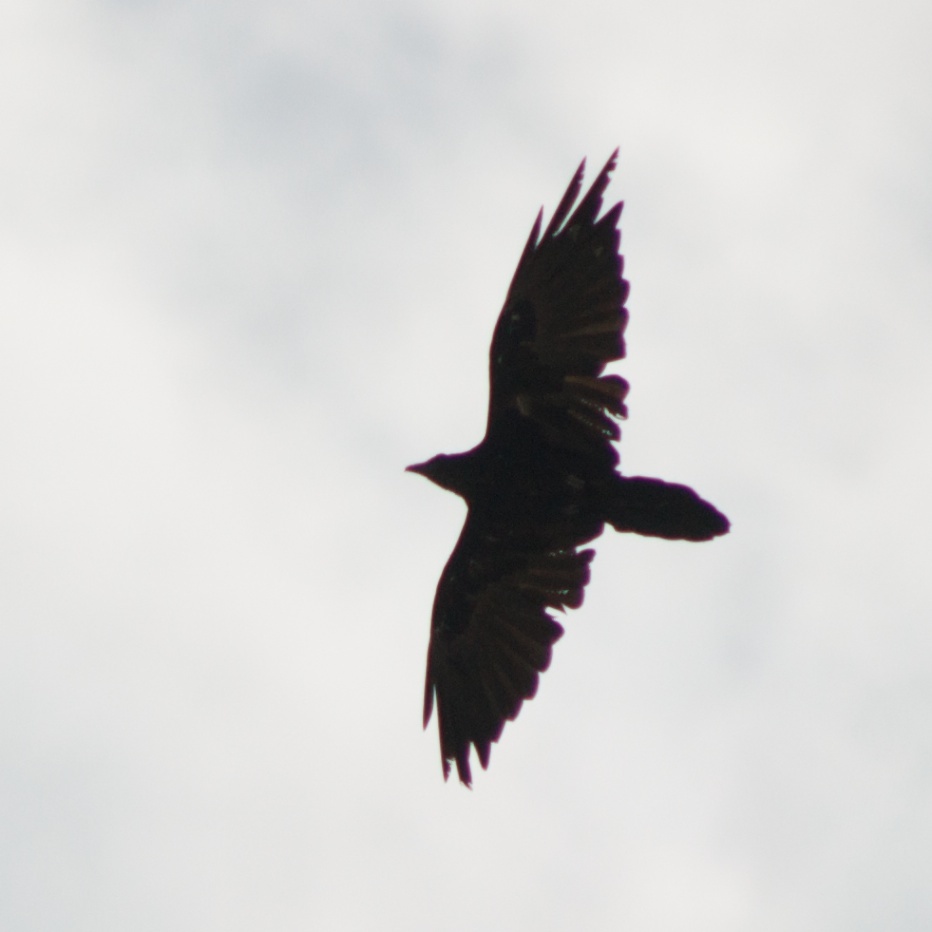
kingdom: Animalia
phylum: Chordata
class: Aves
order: Passeriformes
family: Corvidae
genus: Corvus
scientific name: Corvus corax
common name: Common raven
